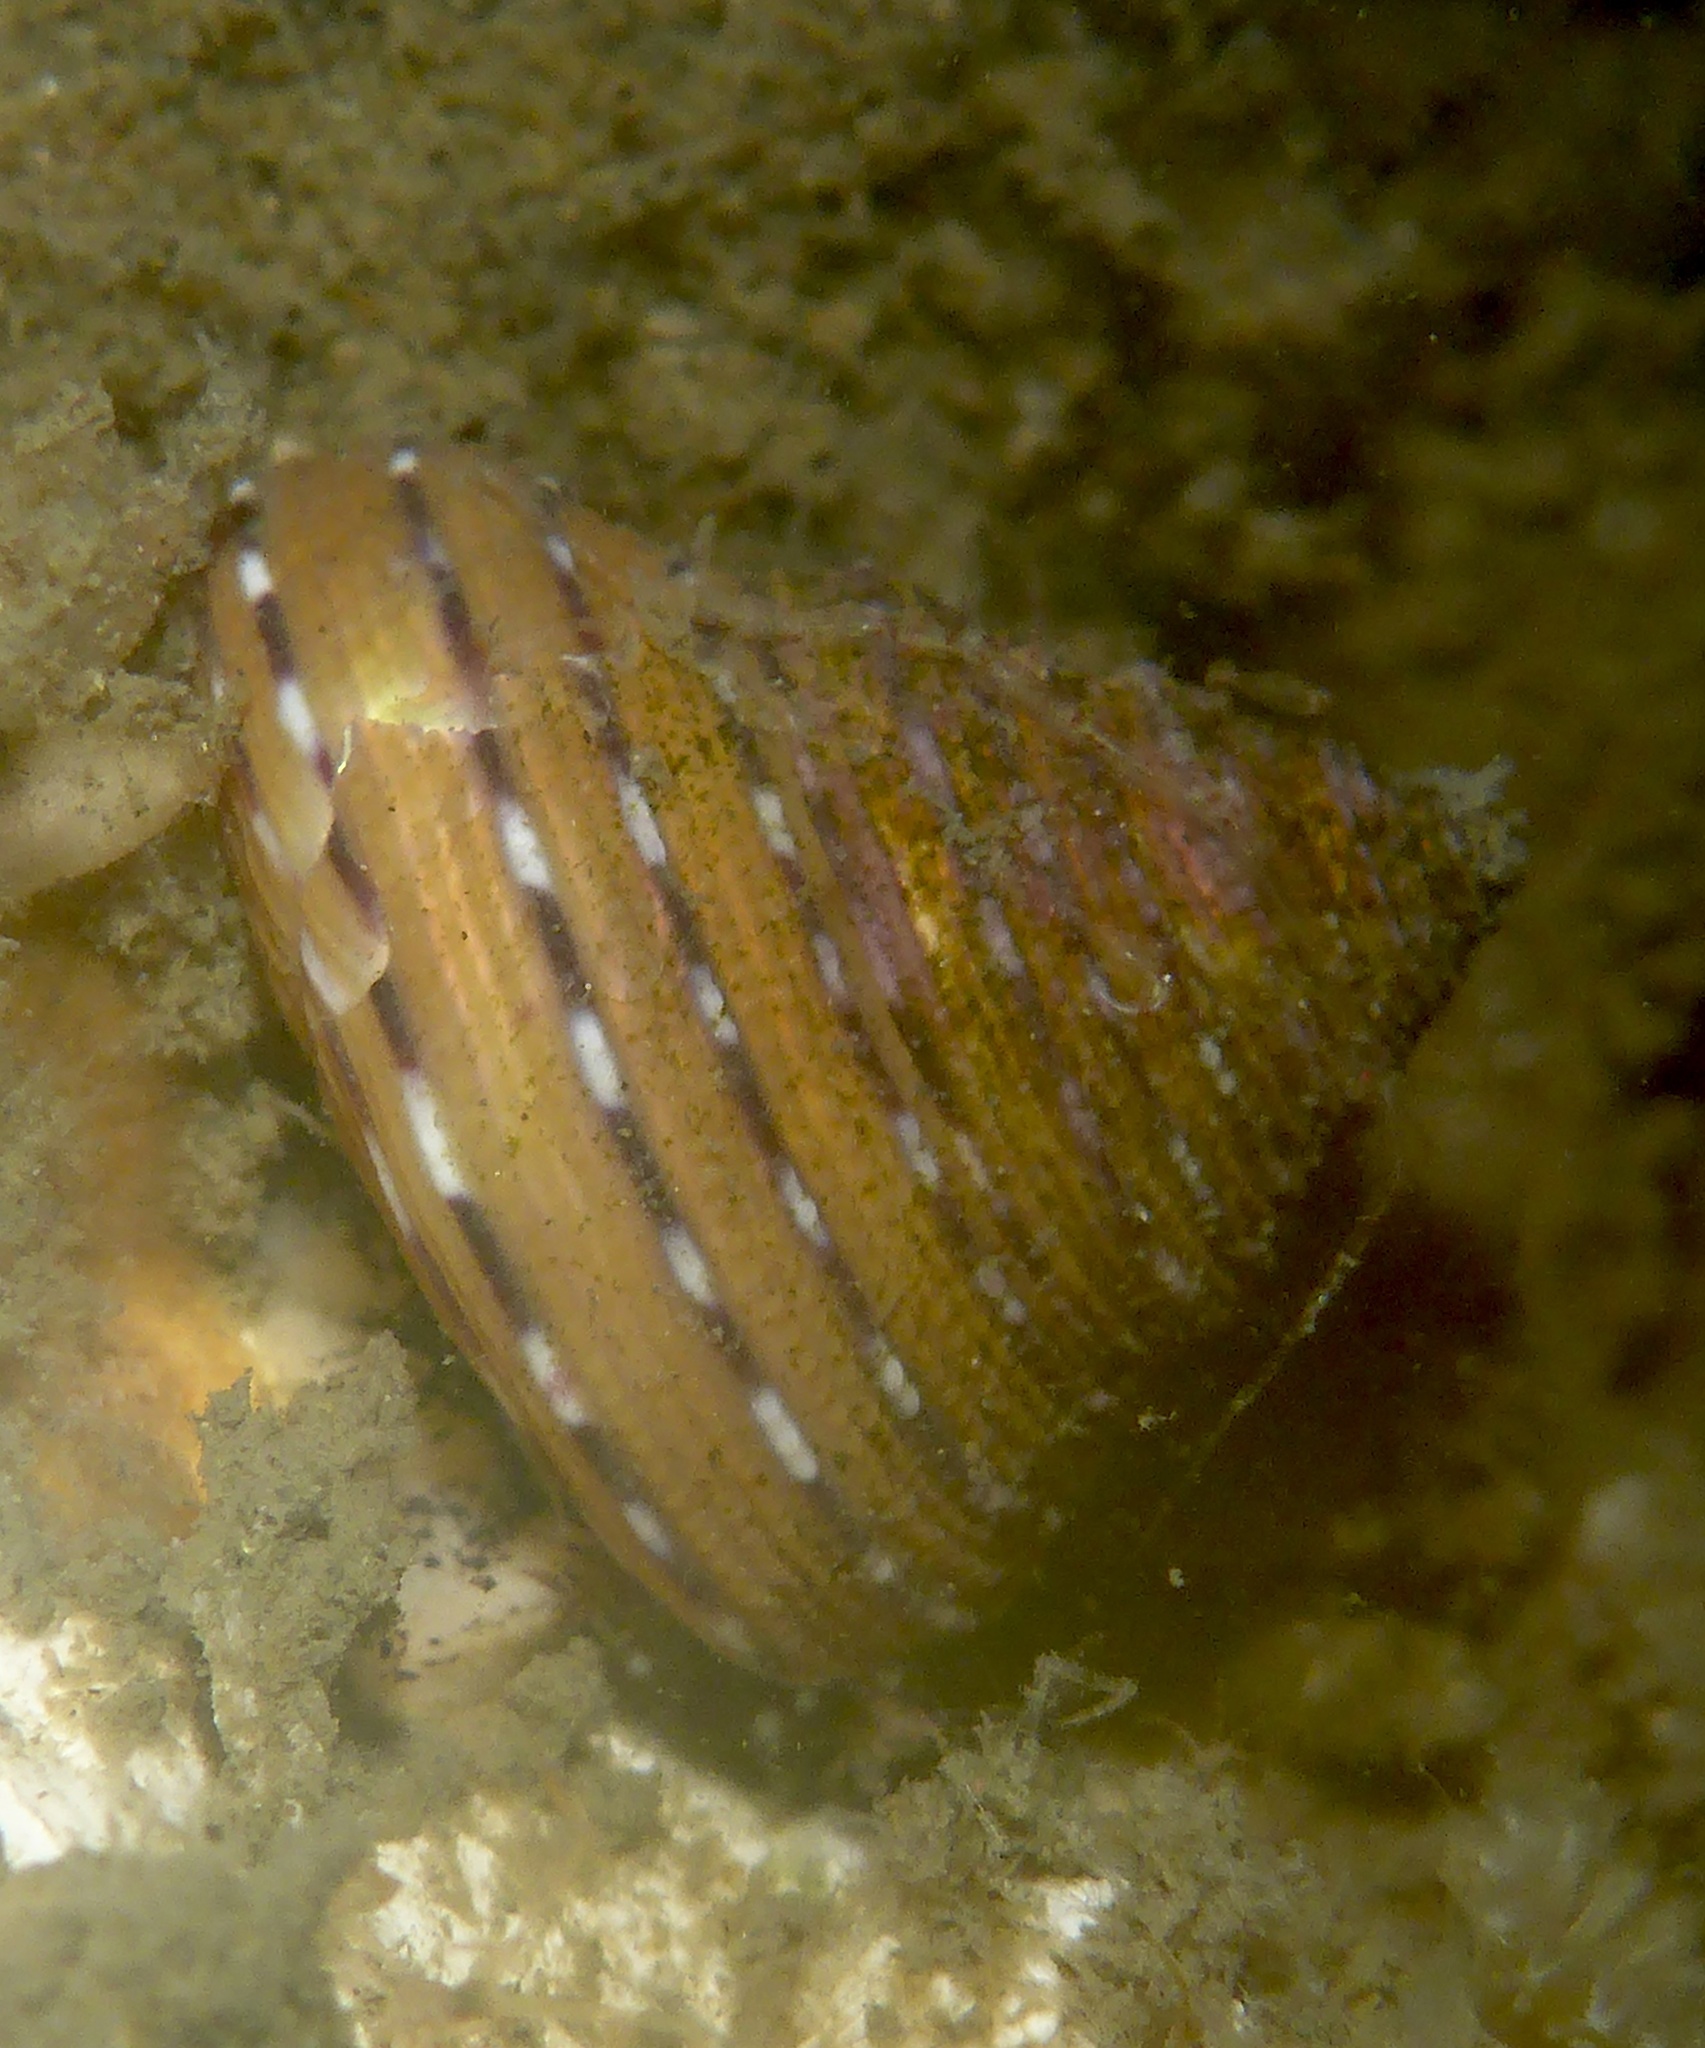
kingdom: Animalia
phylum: Mollusca
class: Gastropoda
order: Trochida
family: Calliostomatidae
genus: Calliostoma
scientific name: Calliostoma tricolor
